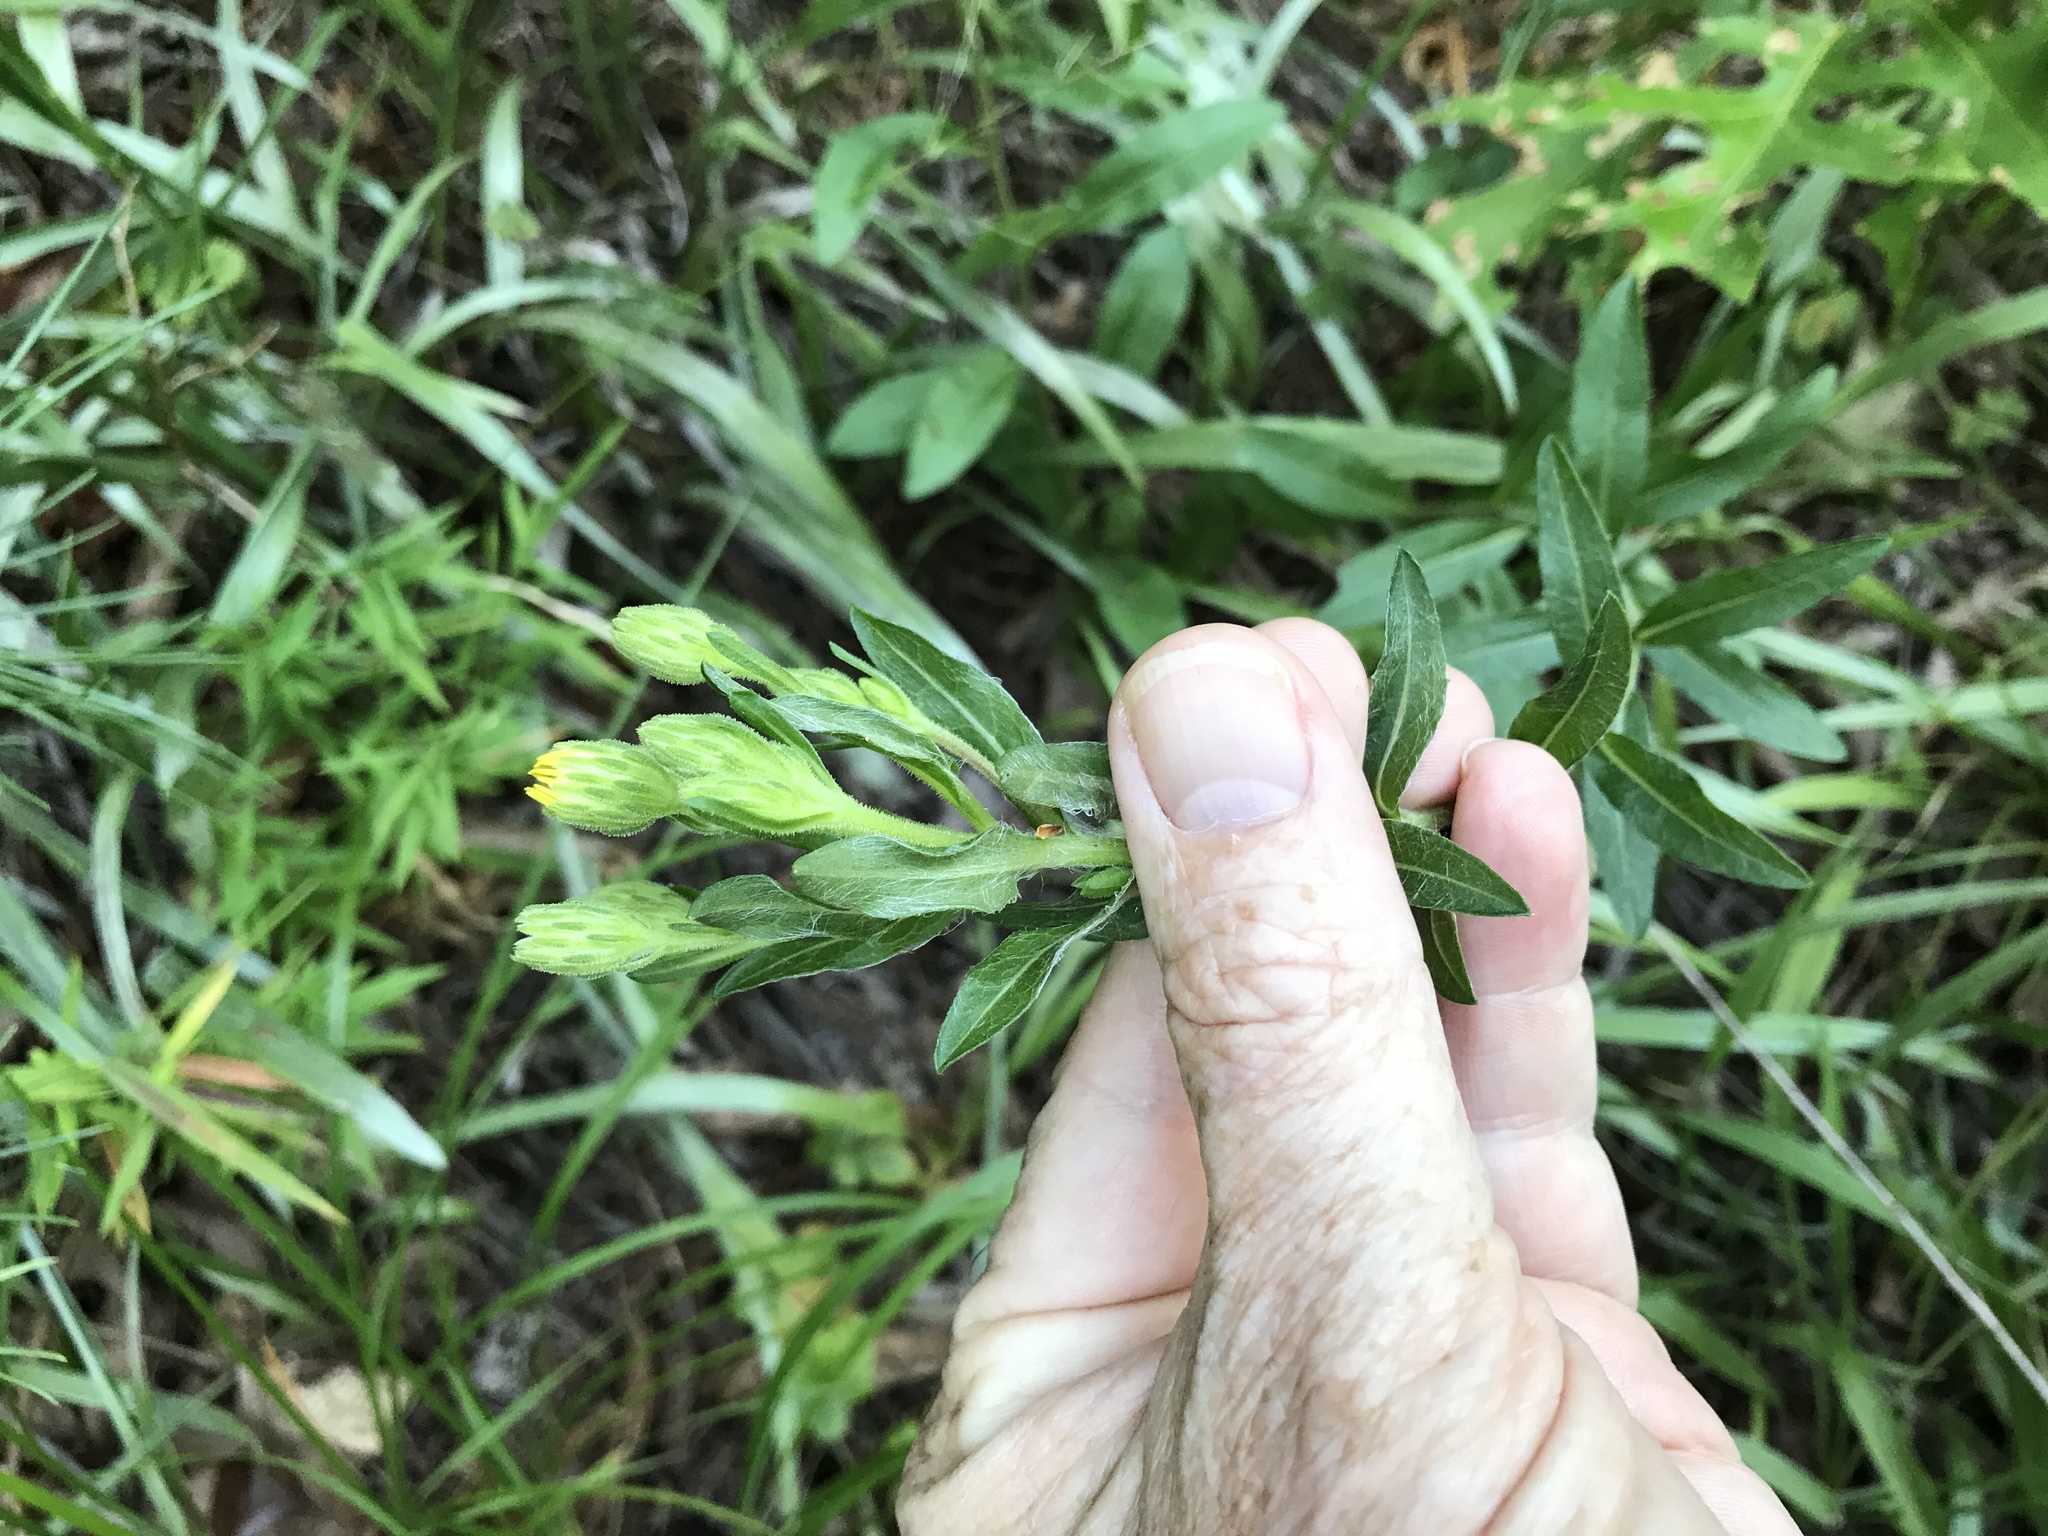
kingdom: Plantae
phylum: Tracheophyta
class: Magnoliopsida
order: Asterales
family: Asteraceae
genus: Chrysopsis
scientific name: Chrysopsis mariana
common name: Maryland golden-aster
